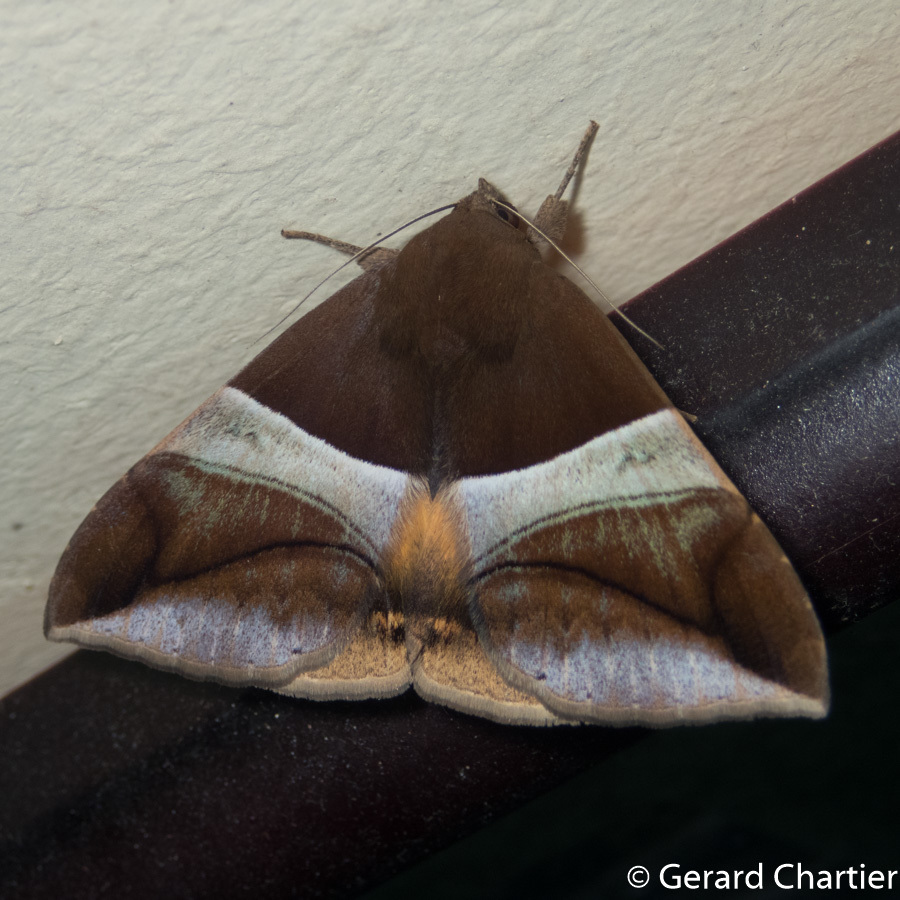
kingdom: Animalia
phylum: Arthropoda
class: Insecta
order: Lepidoptera
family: Erebidae
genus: Bastilla
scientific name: Bastilla fulvotaenia
